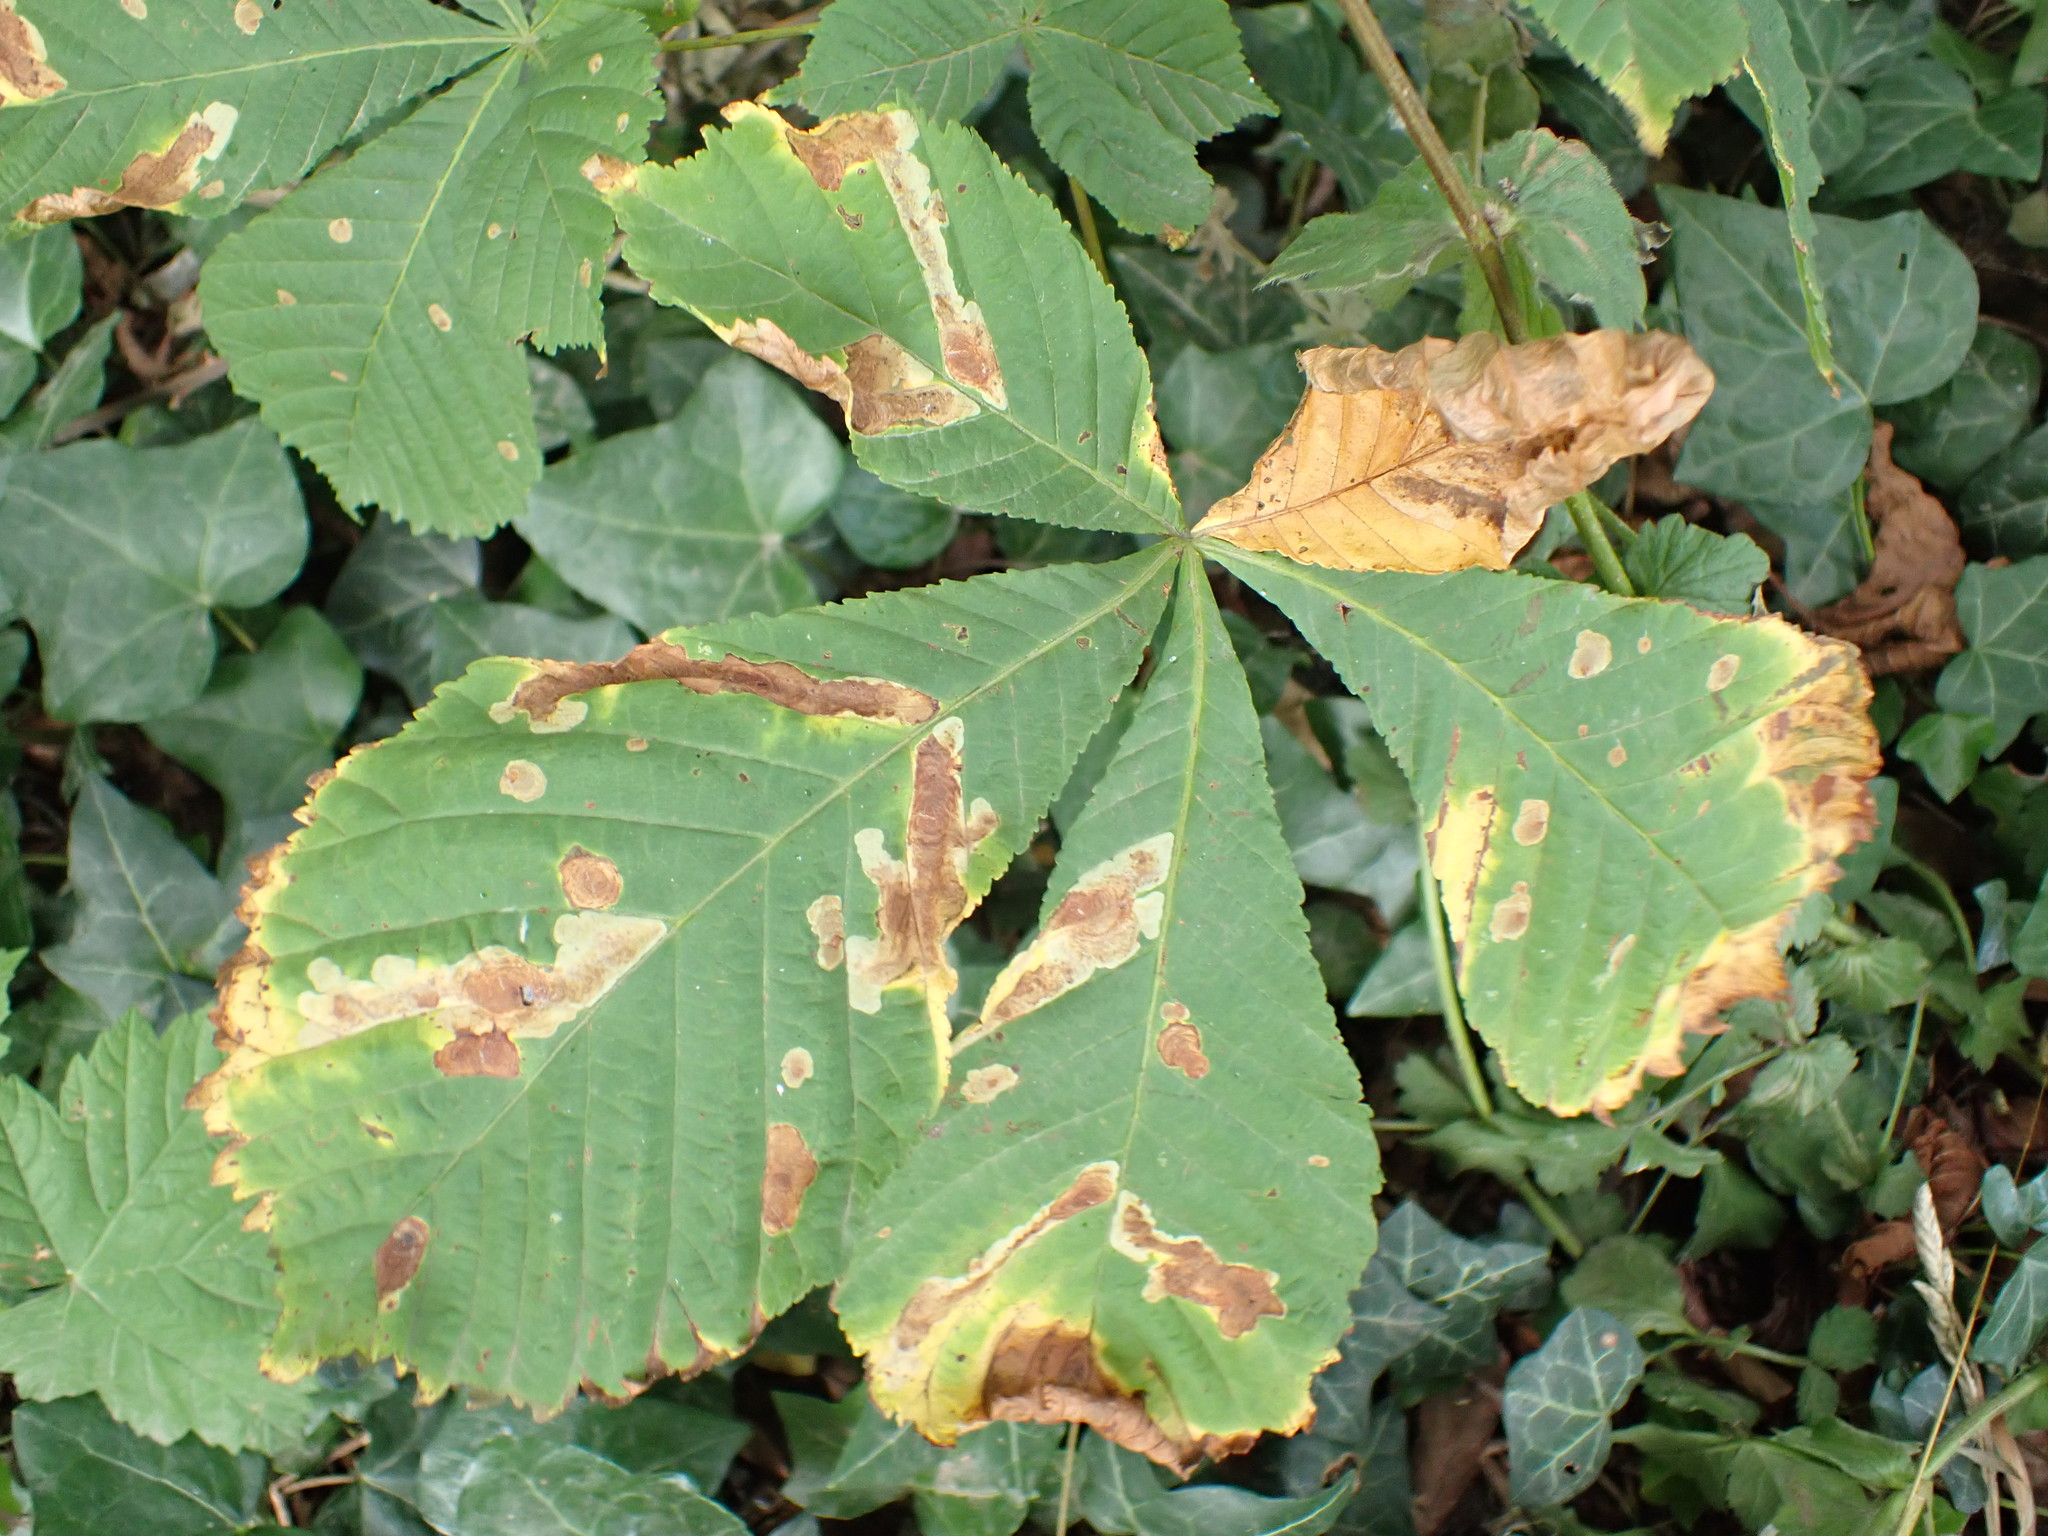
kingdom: Plantae
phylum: Tracheophyta
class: Magnoliopsida
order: Sapindales
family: Sapindaceae
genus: Aesculus
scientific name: Aesculus hippocastanum
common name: Horse-chestnut
